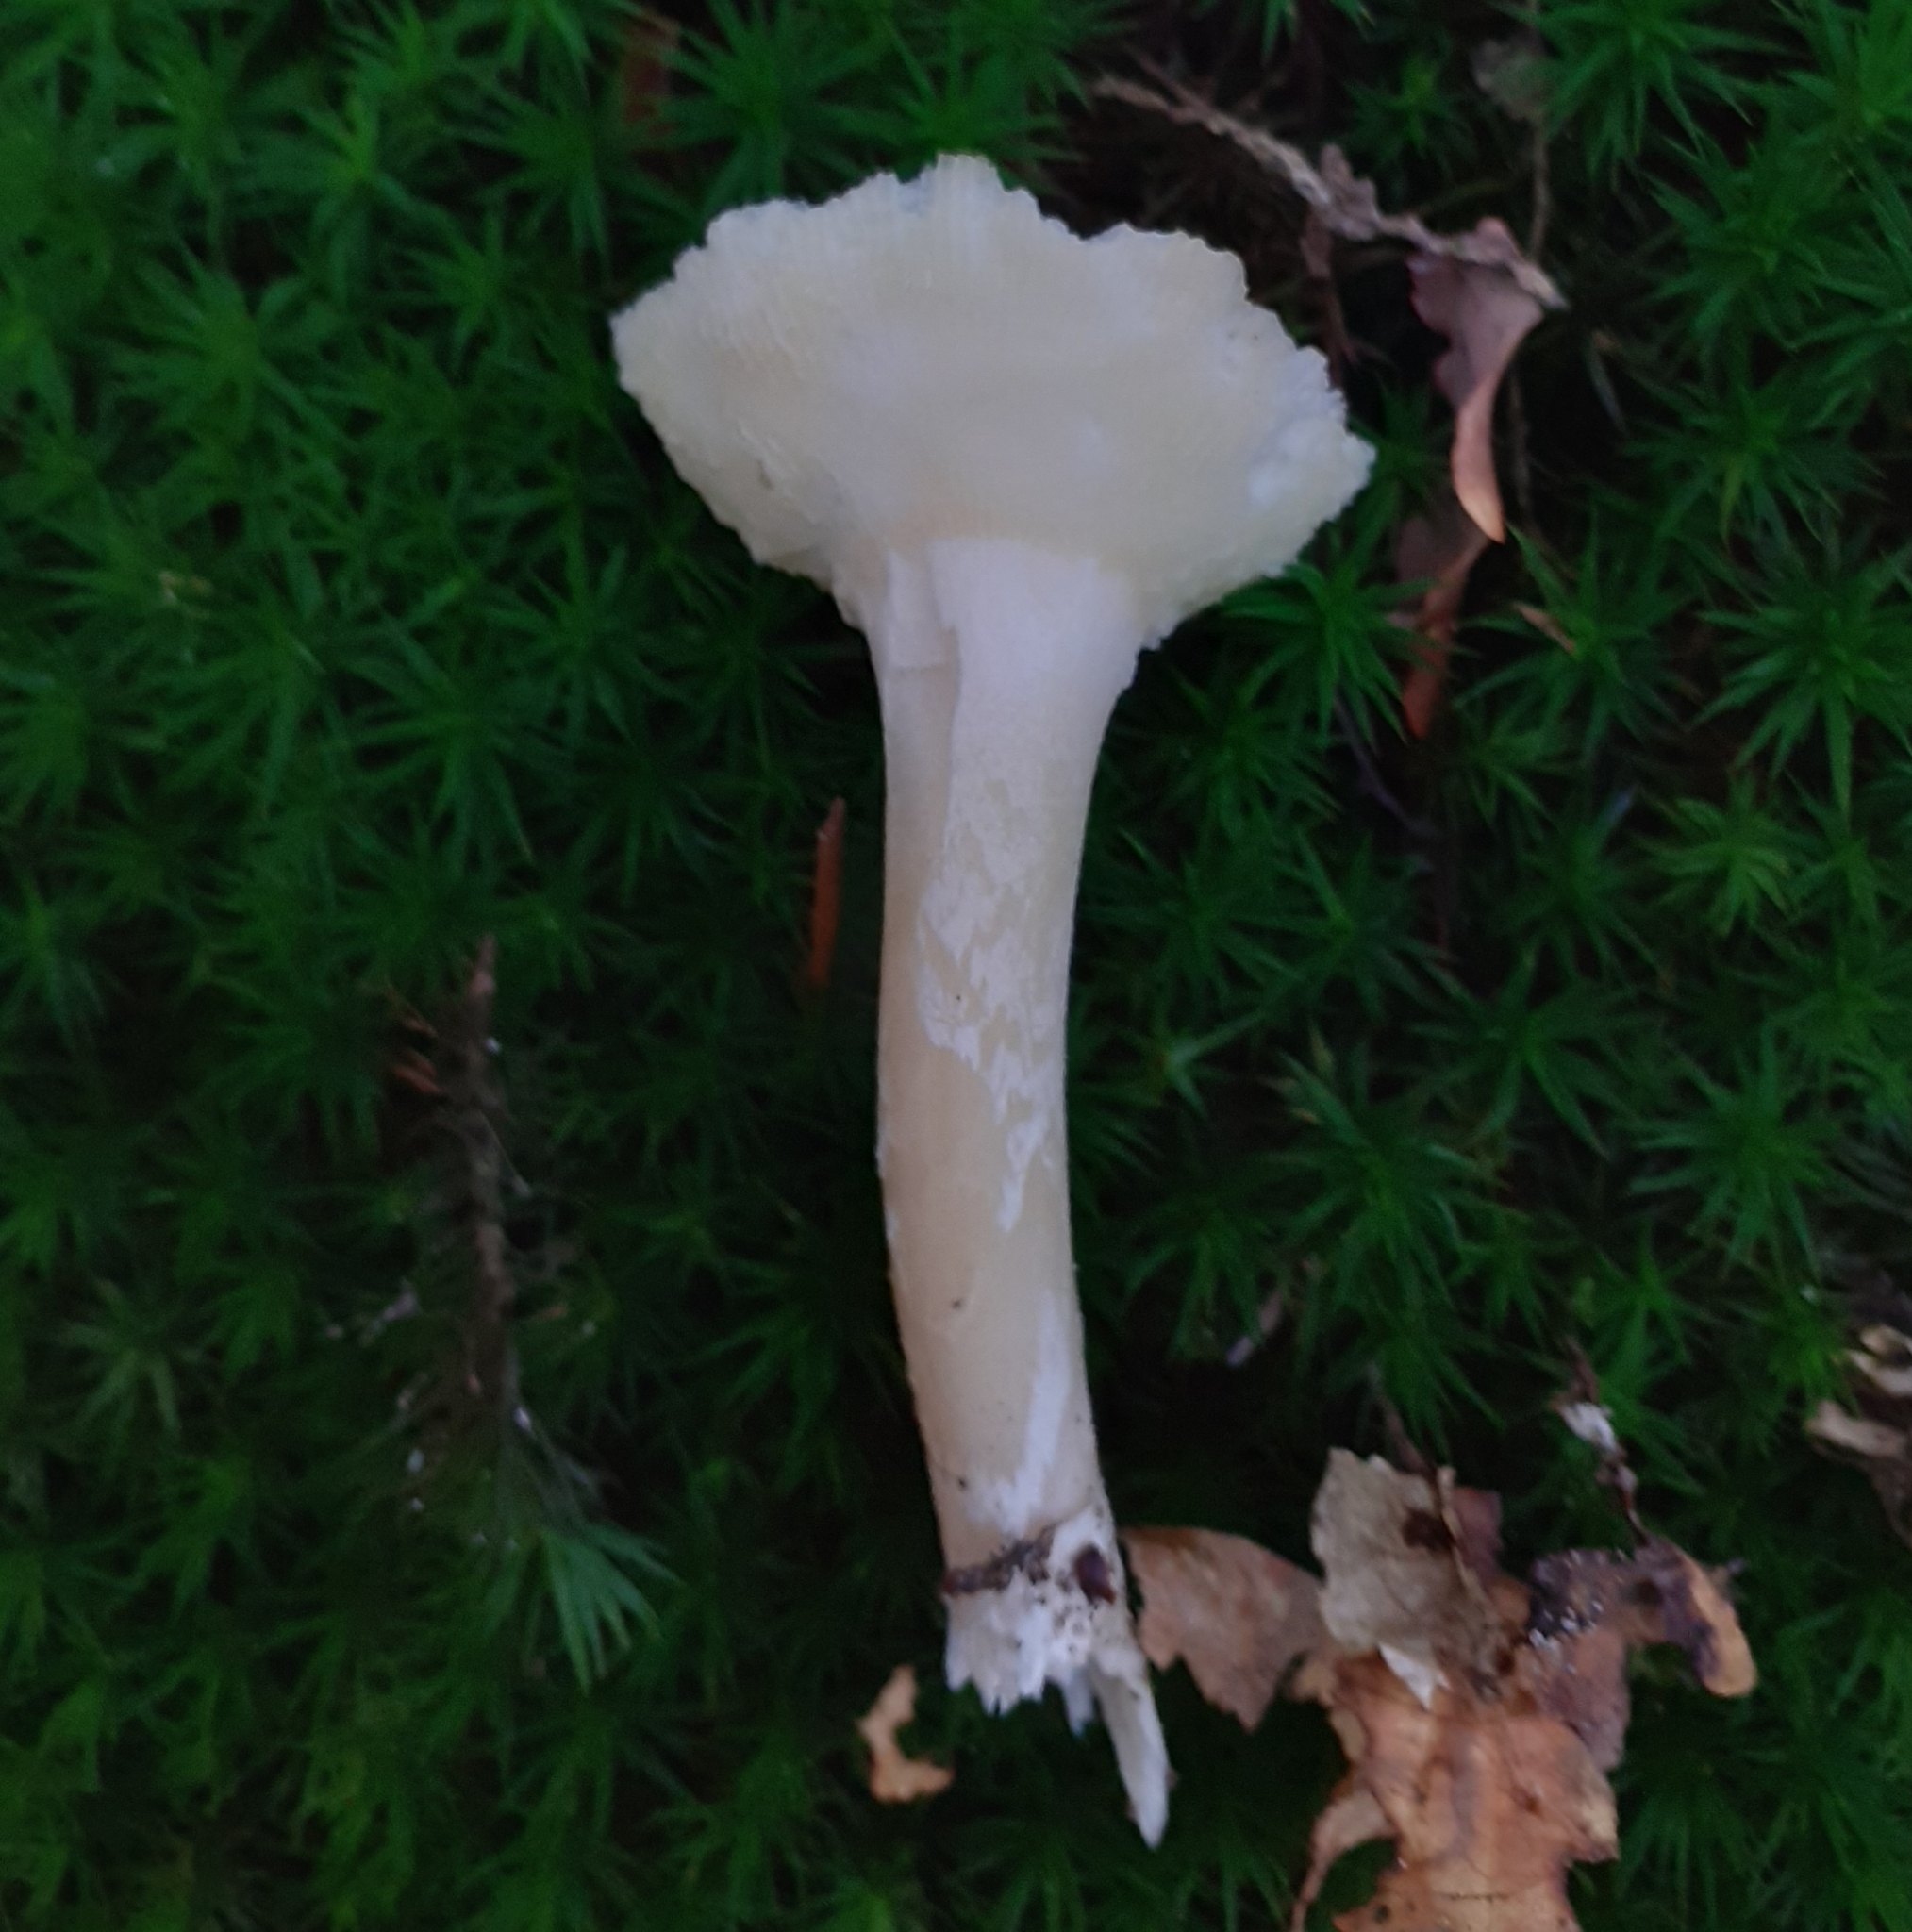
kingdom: Fungi
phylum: Basidiomycota
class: Agaricomycetes
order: Agaricales
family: Amanitaceae
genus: Amanita
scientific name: Amanita gemmata
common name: Jewelled amanita
